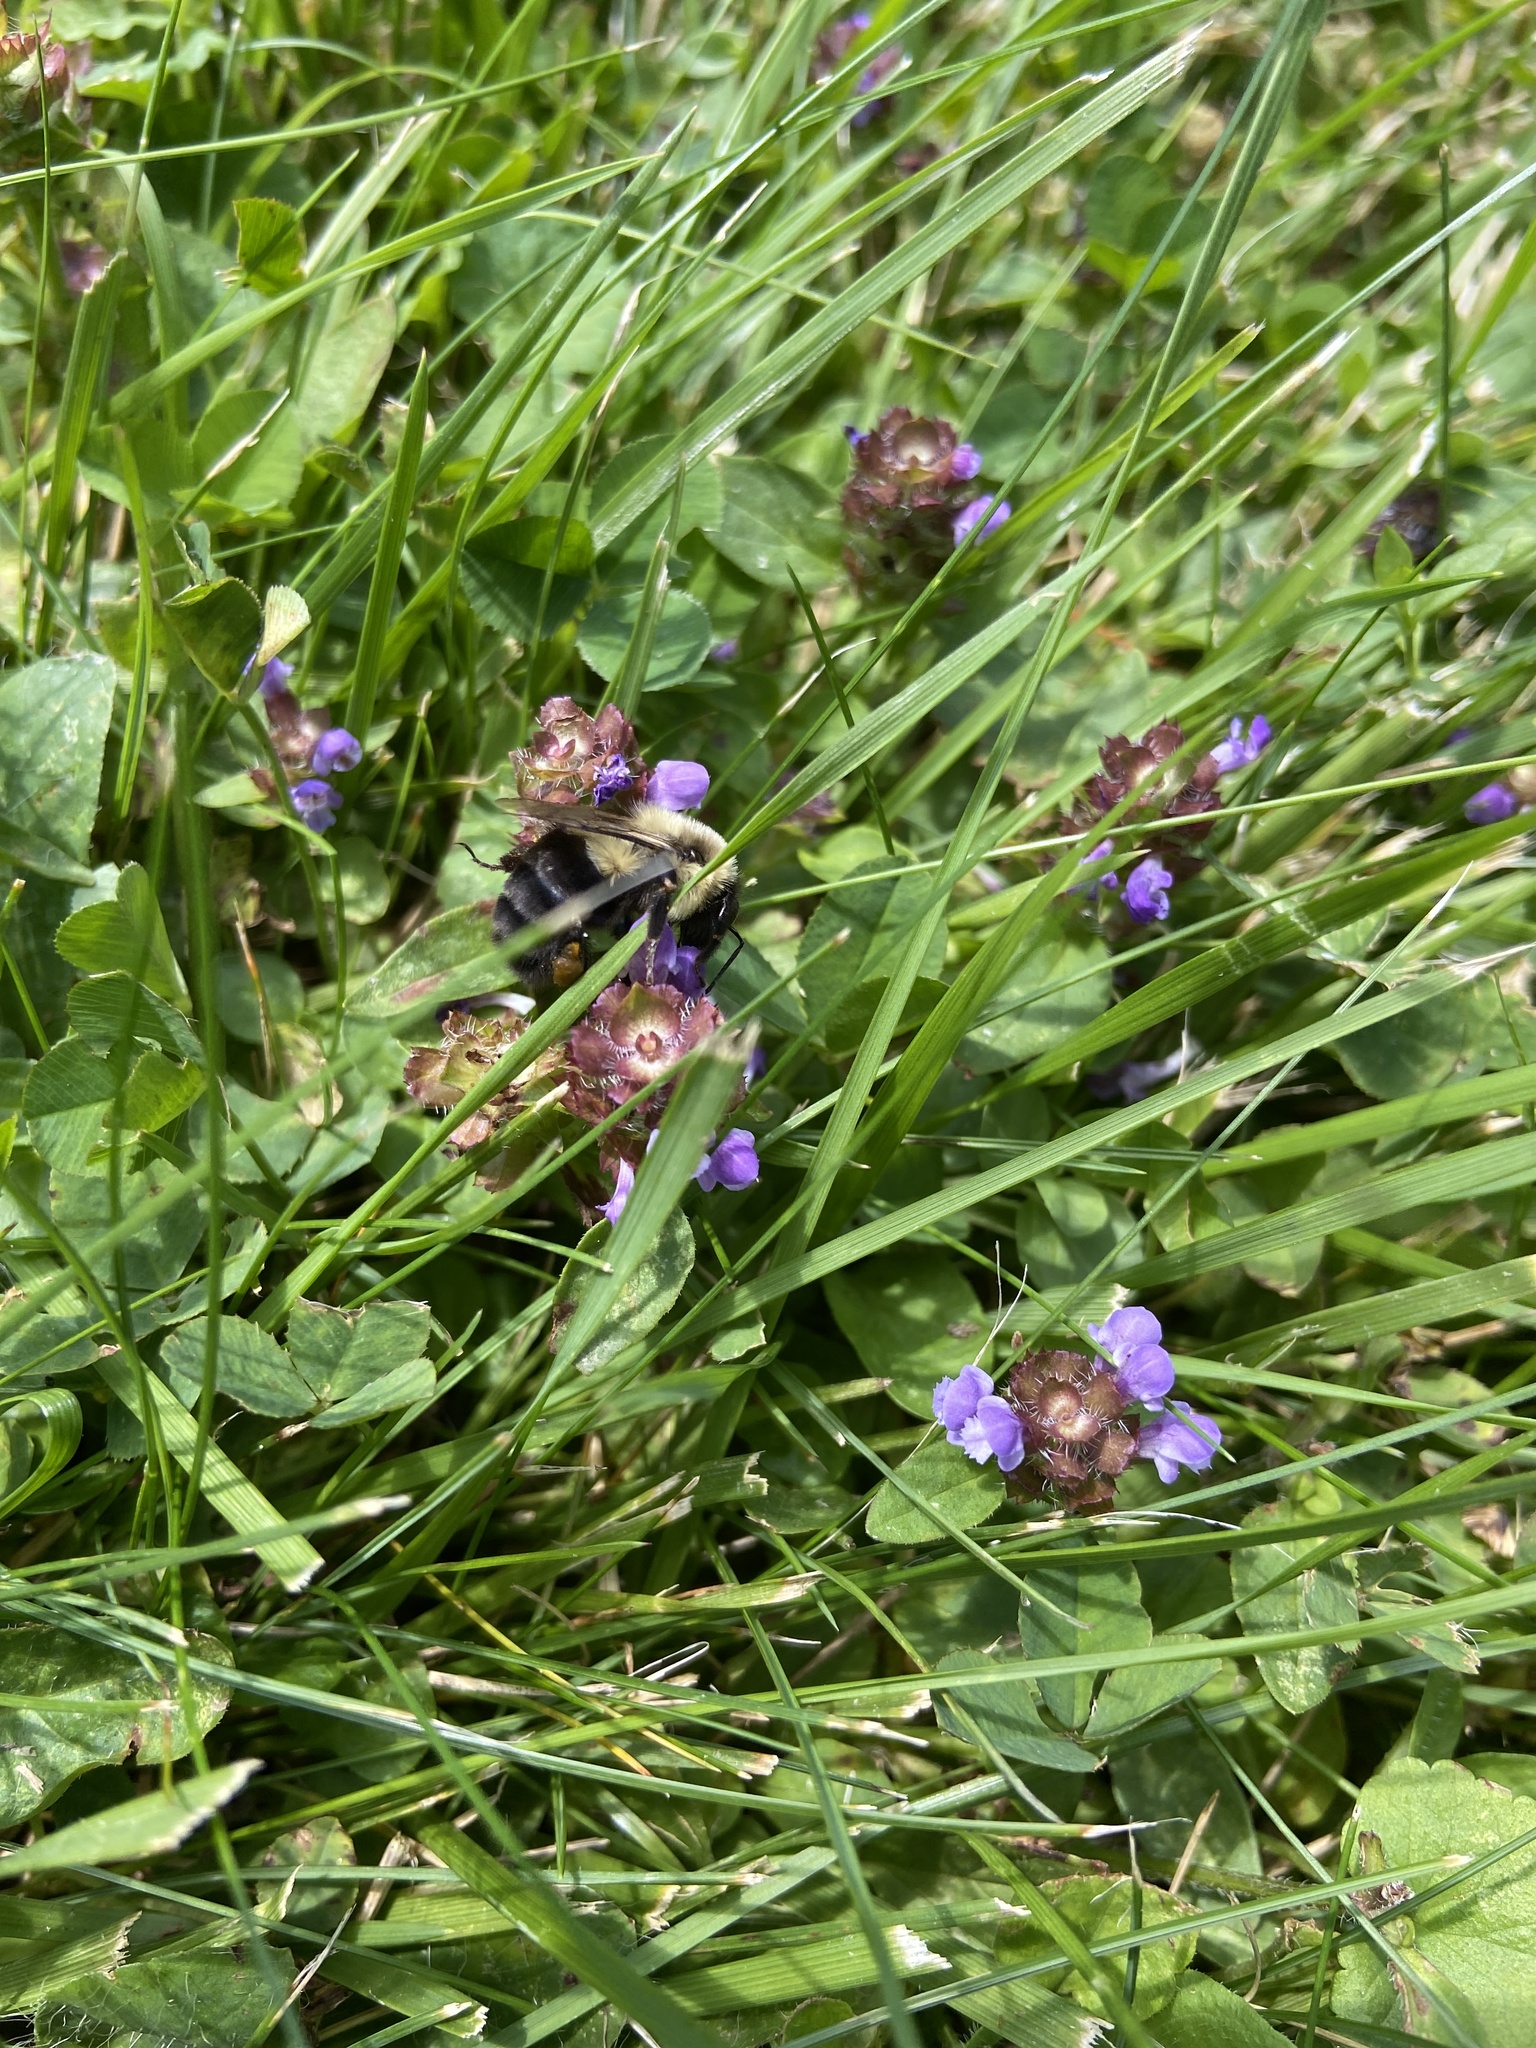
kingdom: Animalia
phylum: Arthropoda
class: Insecta
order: Hymenoptera
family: Apidae
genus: Bombus
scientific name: Bombus impatiens
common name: Common eastern bumble bee
